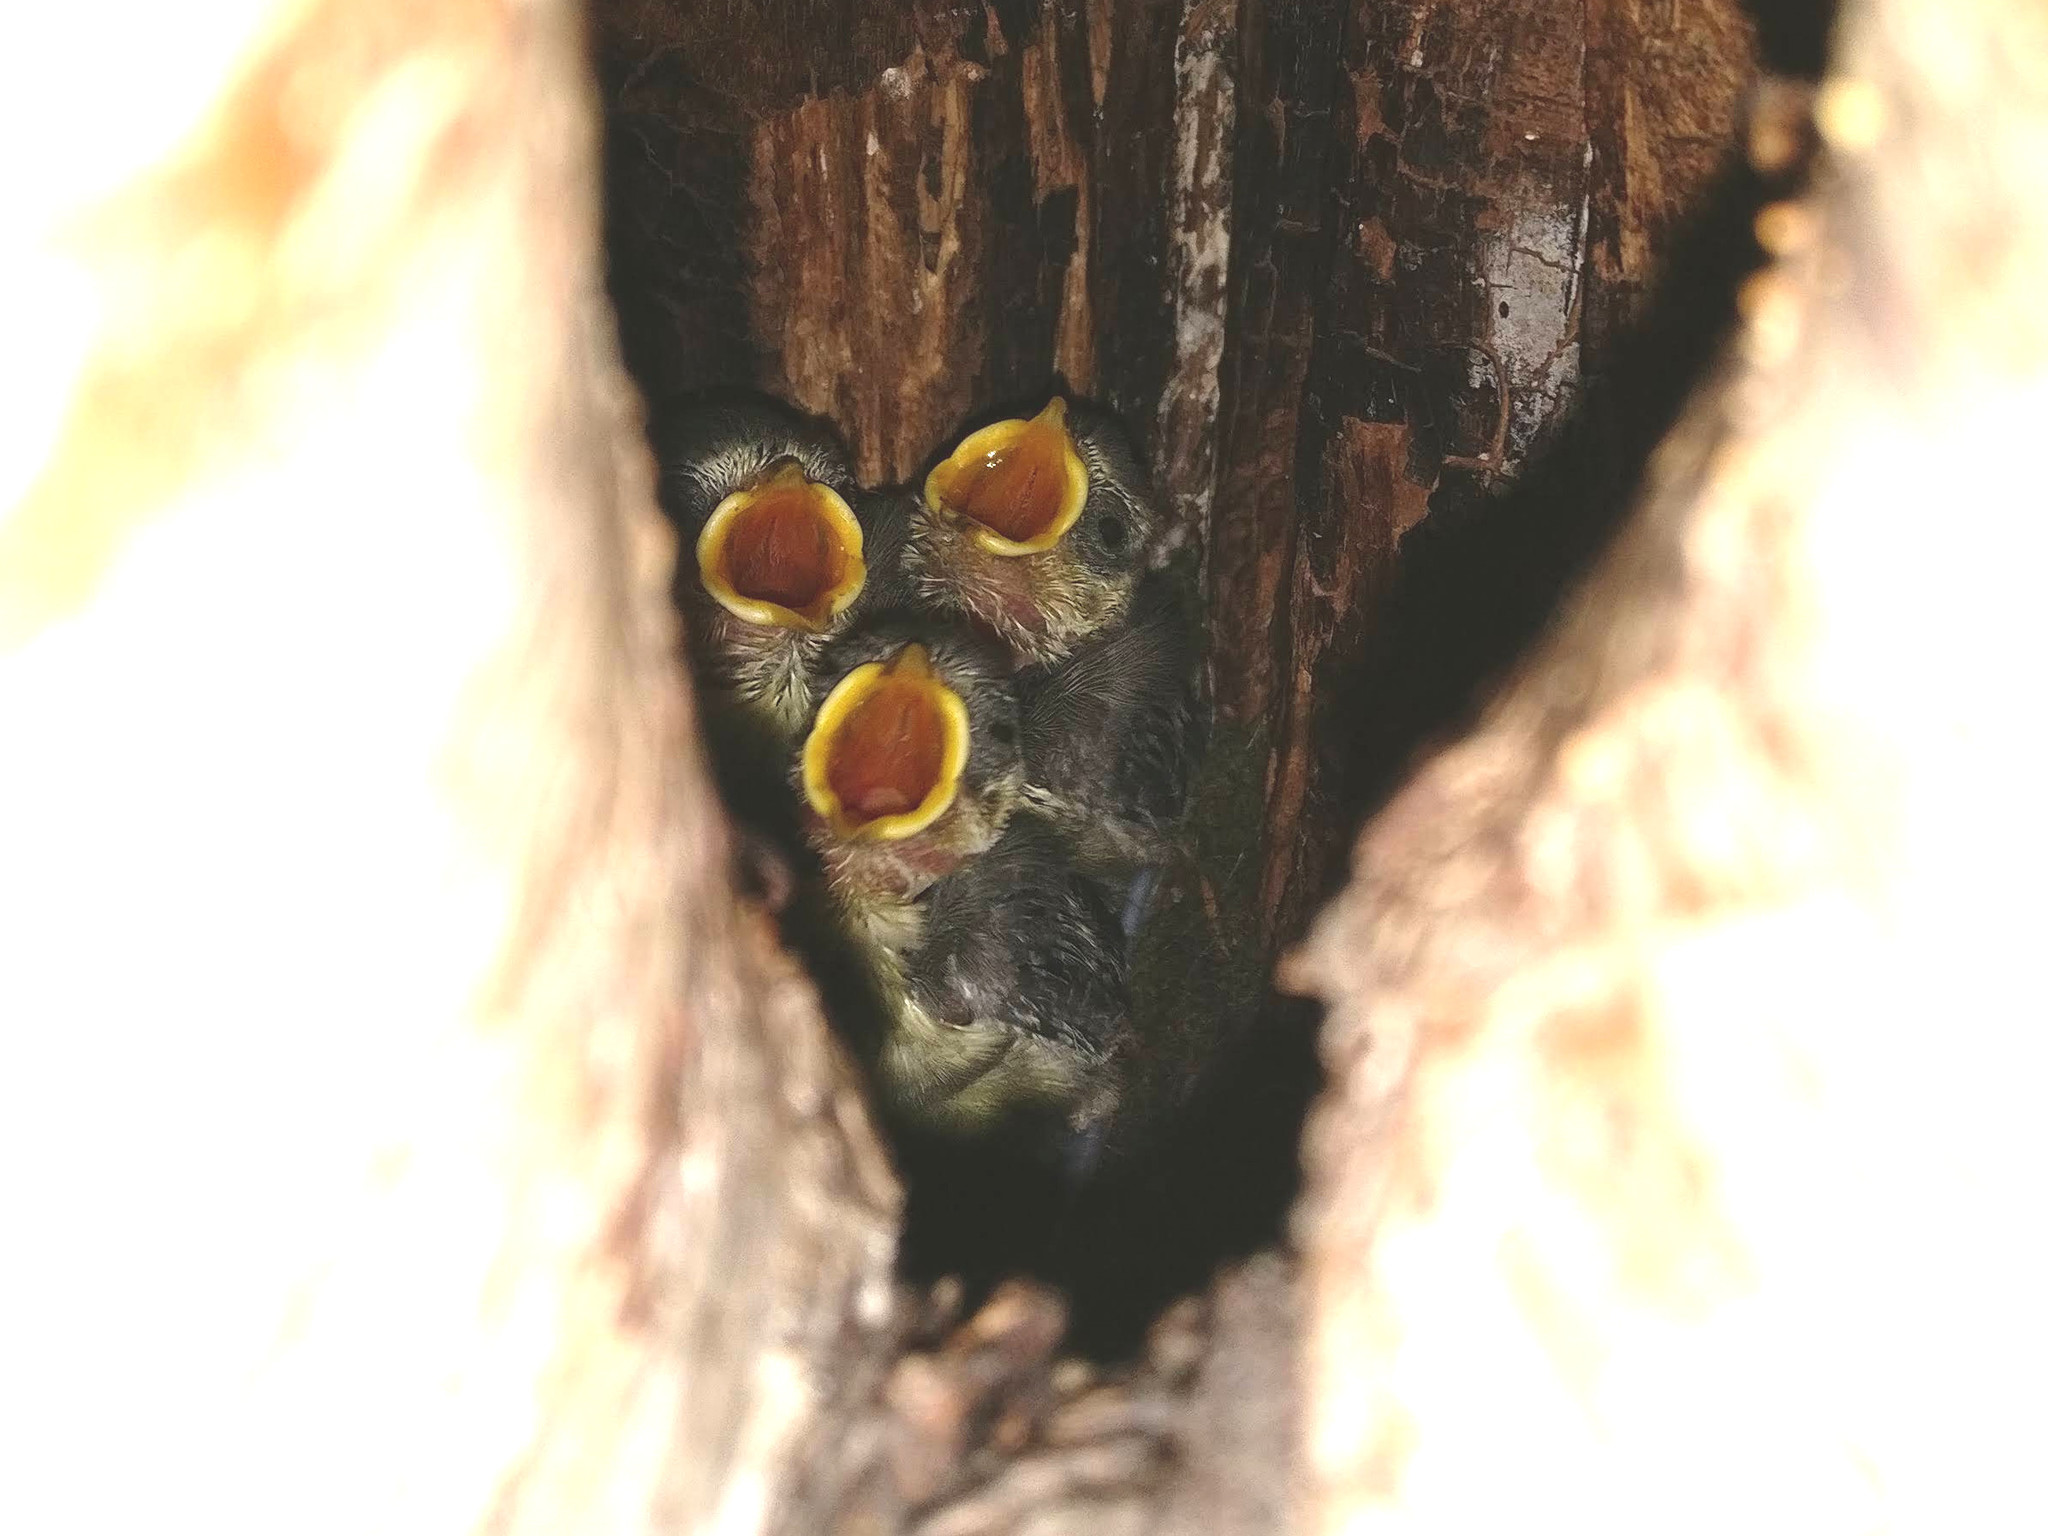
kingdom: Animalia
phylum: Chordata
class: Aves
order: Passeriformes
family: Paridae
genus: Cyanistes
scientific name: Cyanistes caeruleus
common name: Eurasian blue tit
